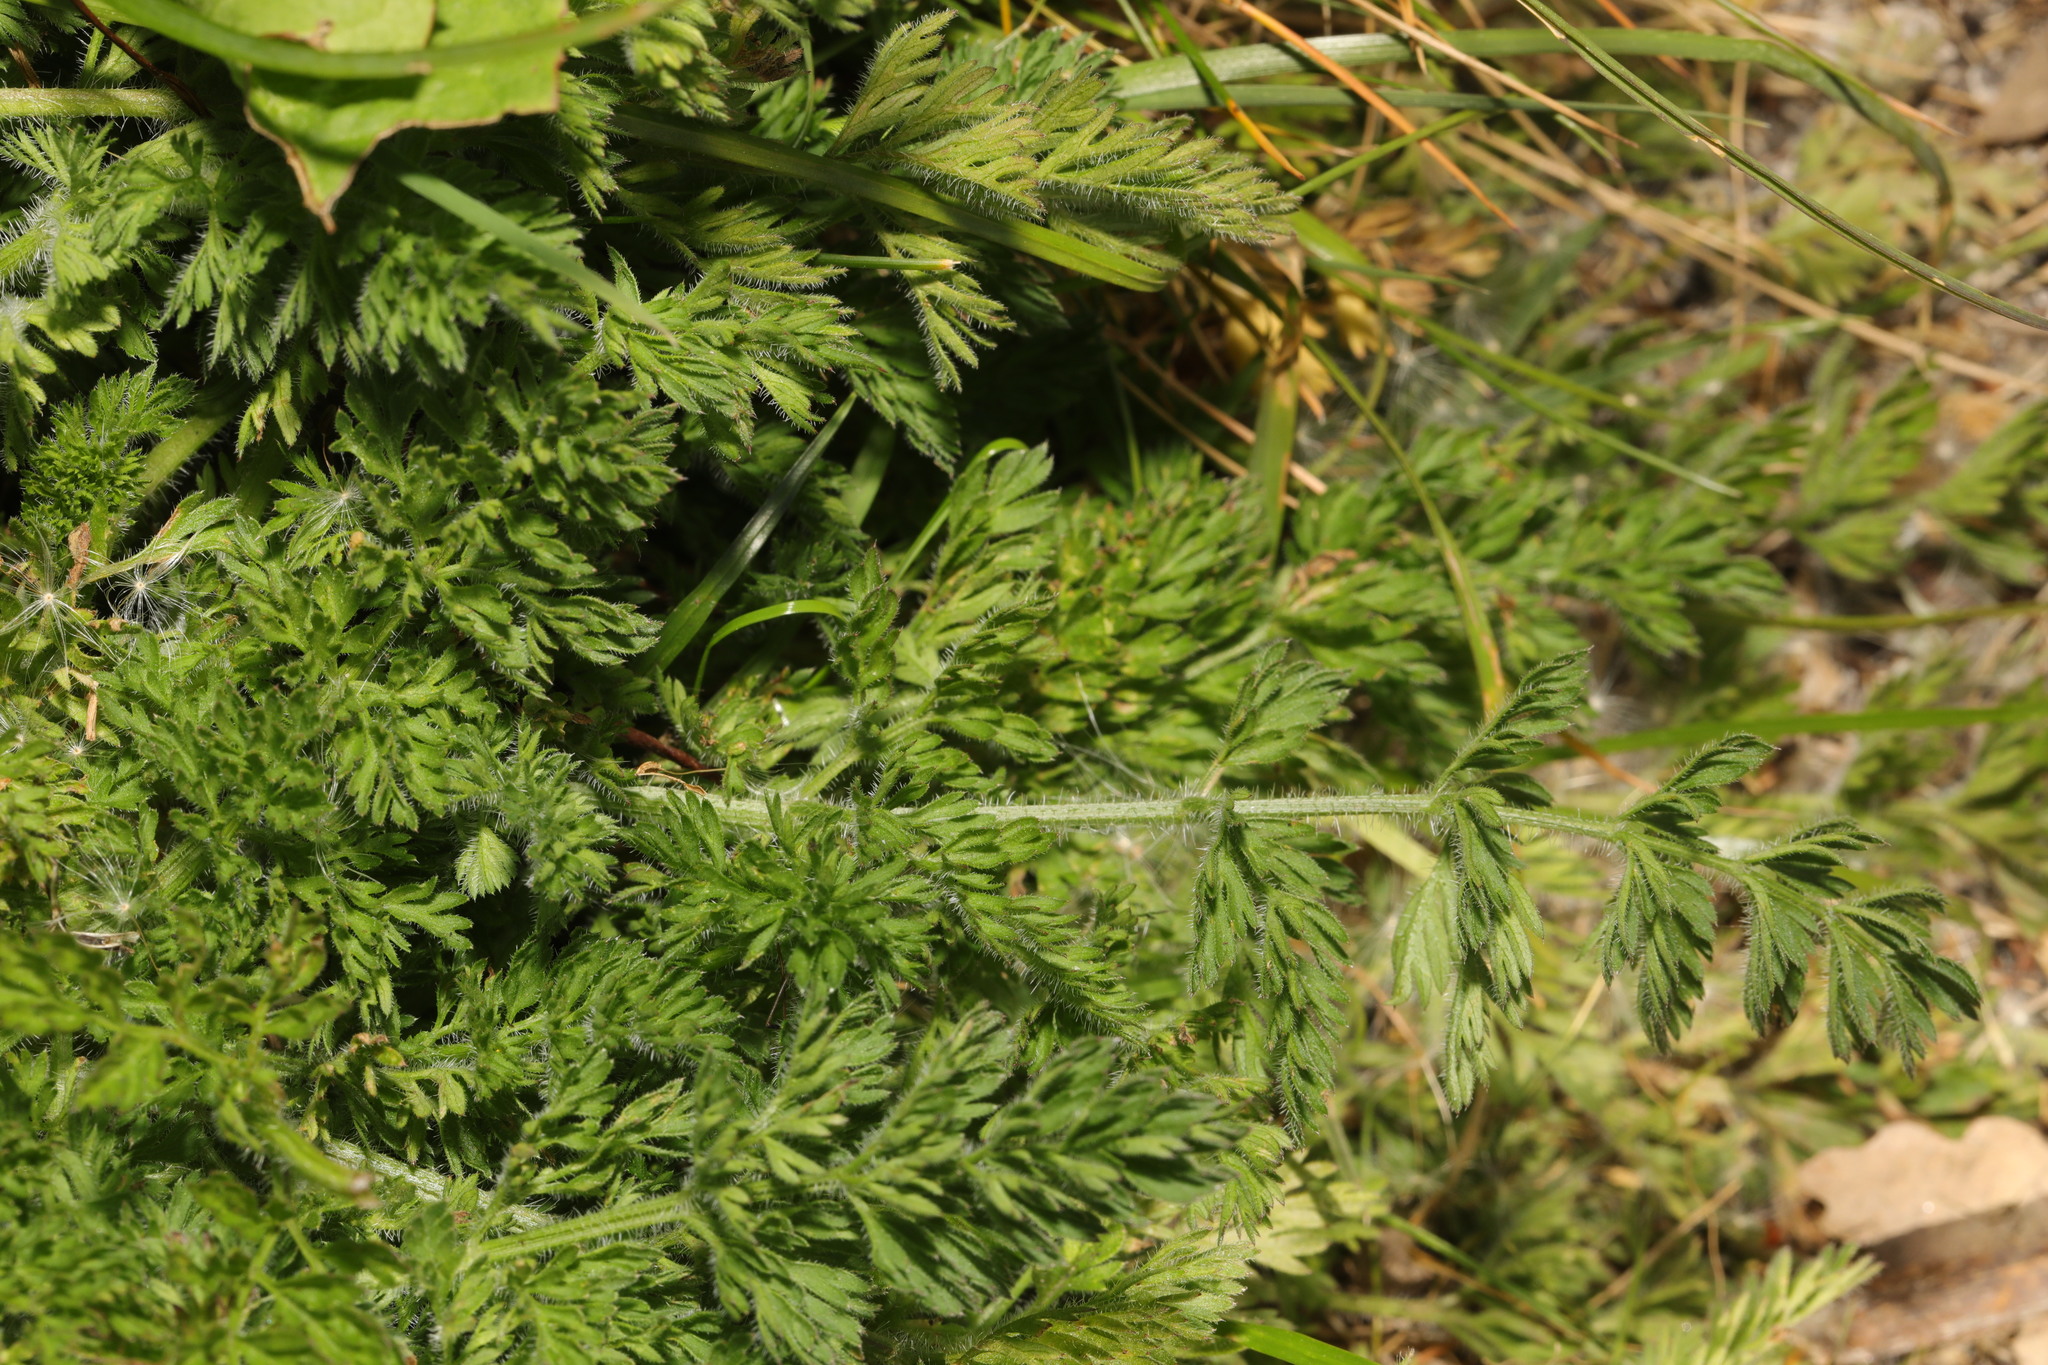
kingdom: Plantae
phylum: Tracheophyta
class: Magnoliopsida
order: Apiales
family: Apiaceae
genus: Daucus
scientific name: Daucus carota
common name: Wild carrot
